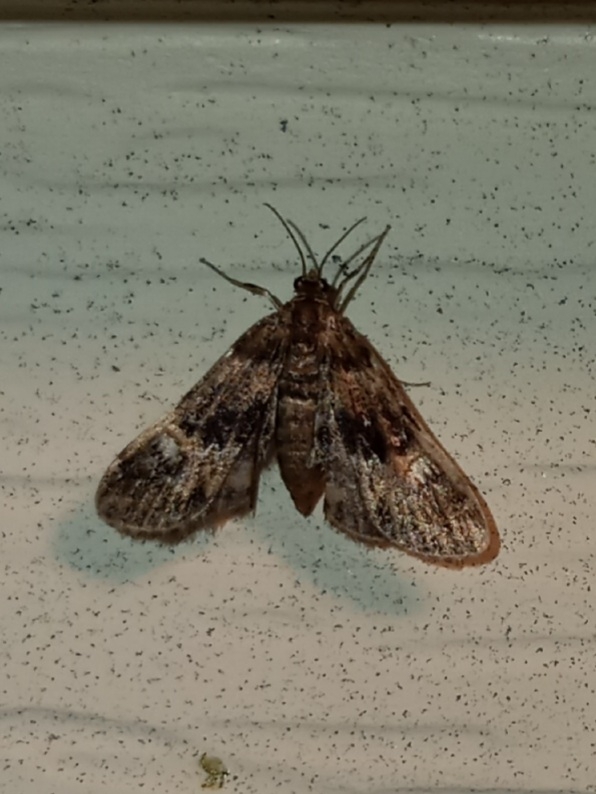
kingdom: Animalia
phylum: Arthropoda
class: Insecta
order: Lepidoptera
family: Crambidae
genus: Elophila
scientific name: Elophila obliteralis
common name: Waterlily leafcutter moth
